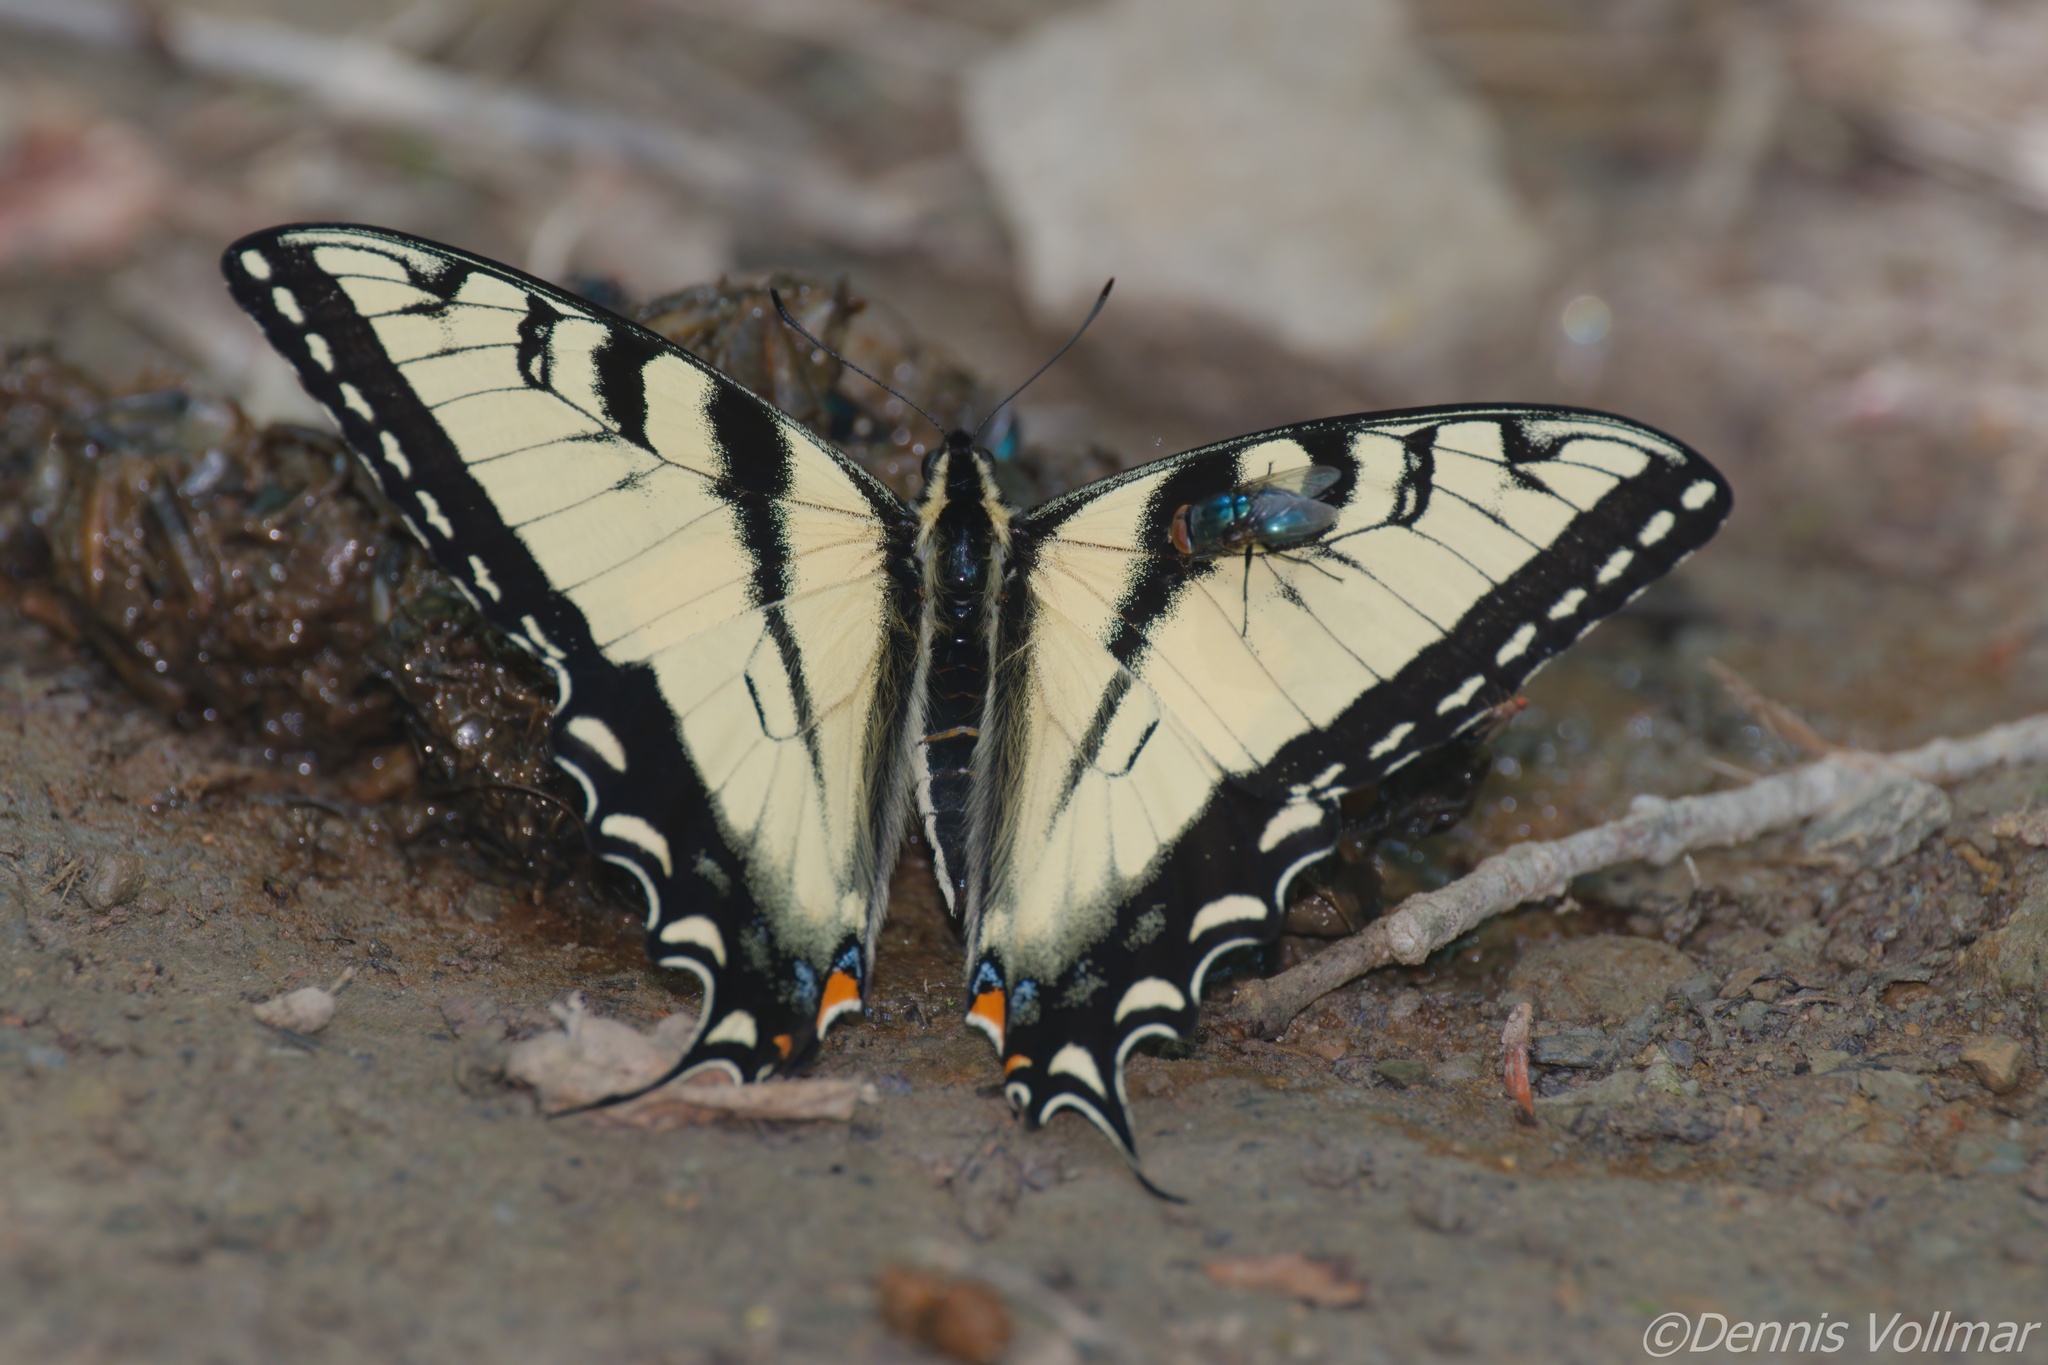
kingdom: Animalia
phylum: Arthropoda
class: Insecta
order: Lepidoptera
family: Papilionidae
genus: Papilio
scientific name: Papilio glaucus
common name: Tiger swallowtail
